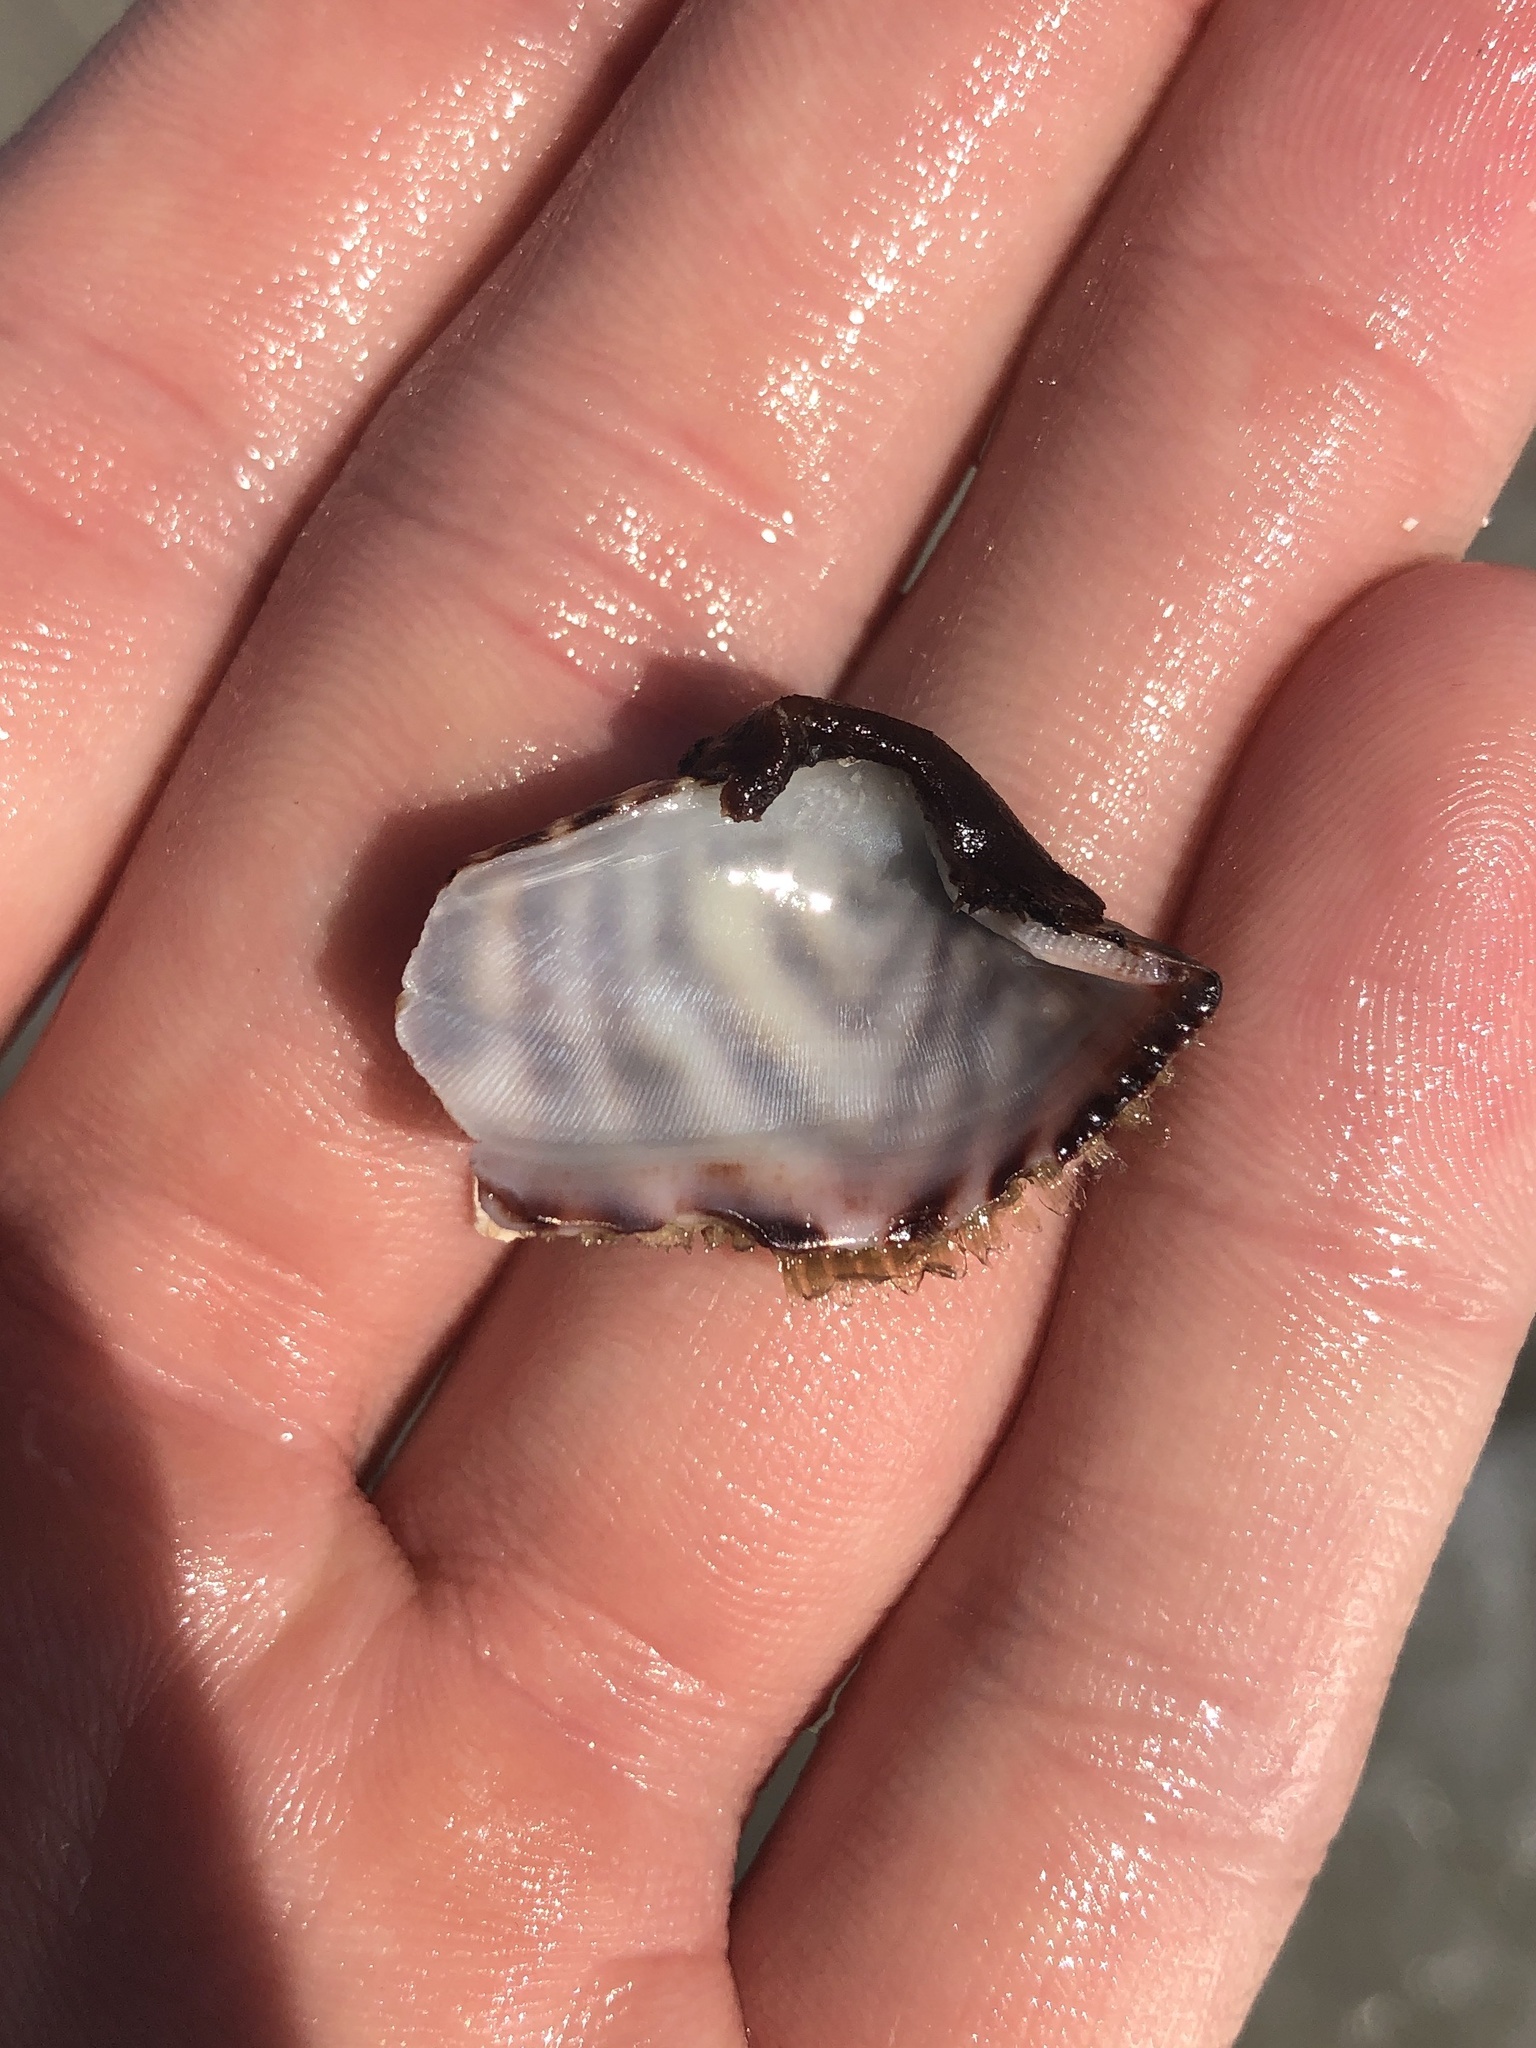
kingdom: Animalia
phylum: Mollusca
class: Bivalvia
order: Arcida
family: Arcidae
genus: Arca
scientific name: Arca zebra
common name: Atlantic turkey wing
